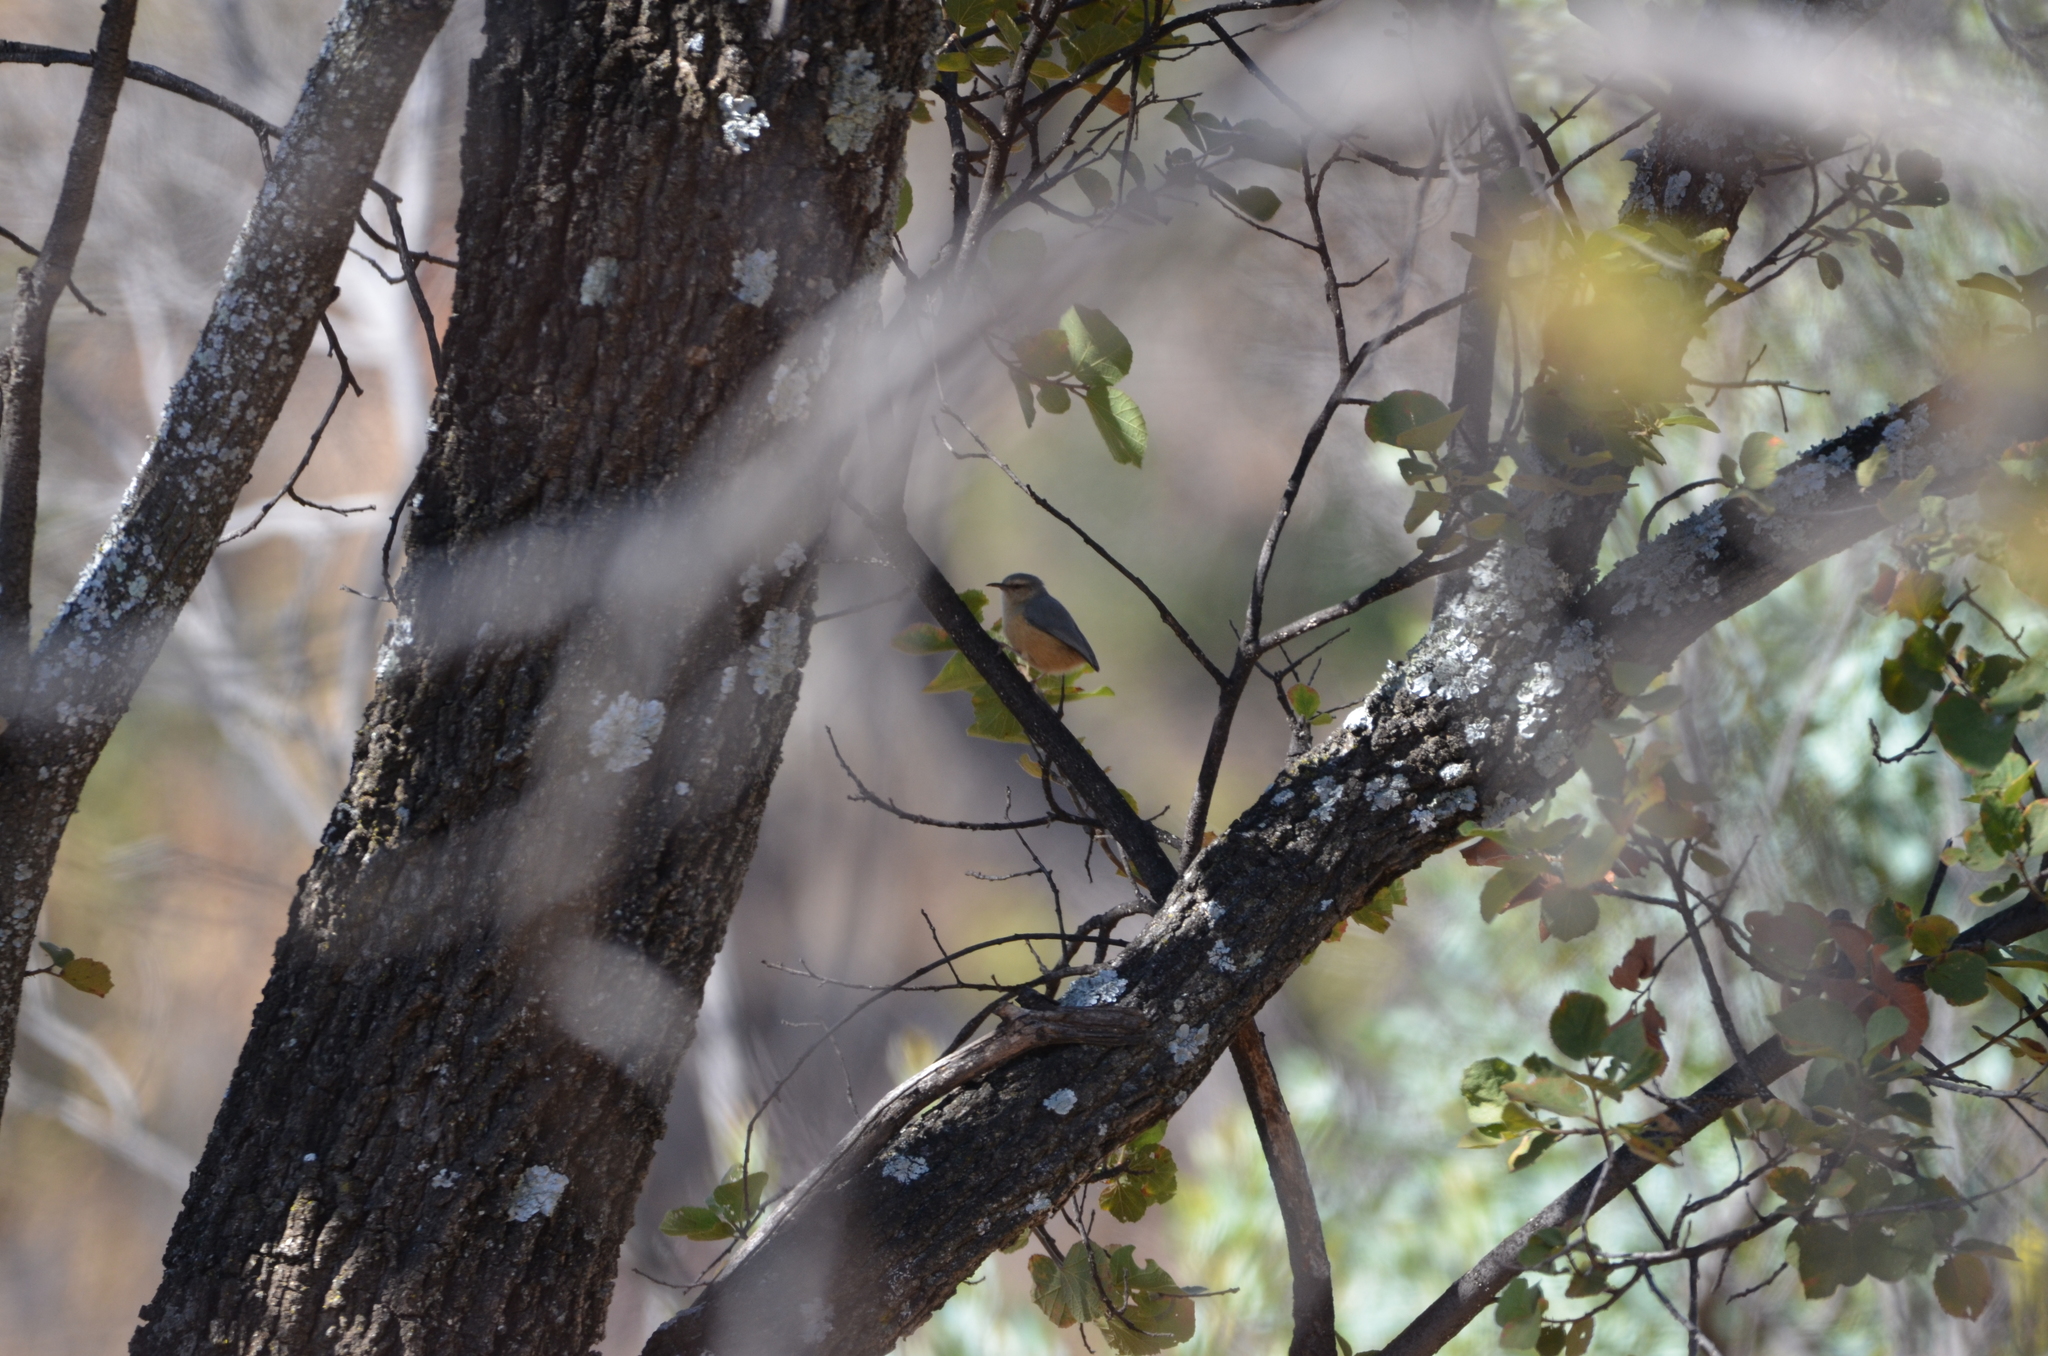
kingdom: Animalia
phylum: Chordata
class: Aves
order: Passeriformes
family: Macrosphenidae
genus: Sylvietta
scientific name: Sylvietta rufescens
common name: Long-billed crombec
